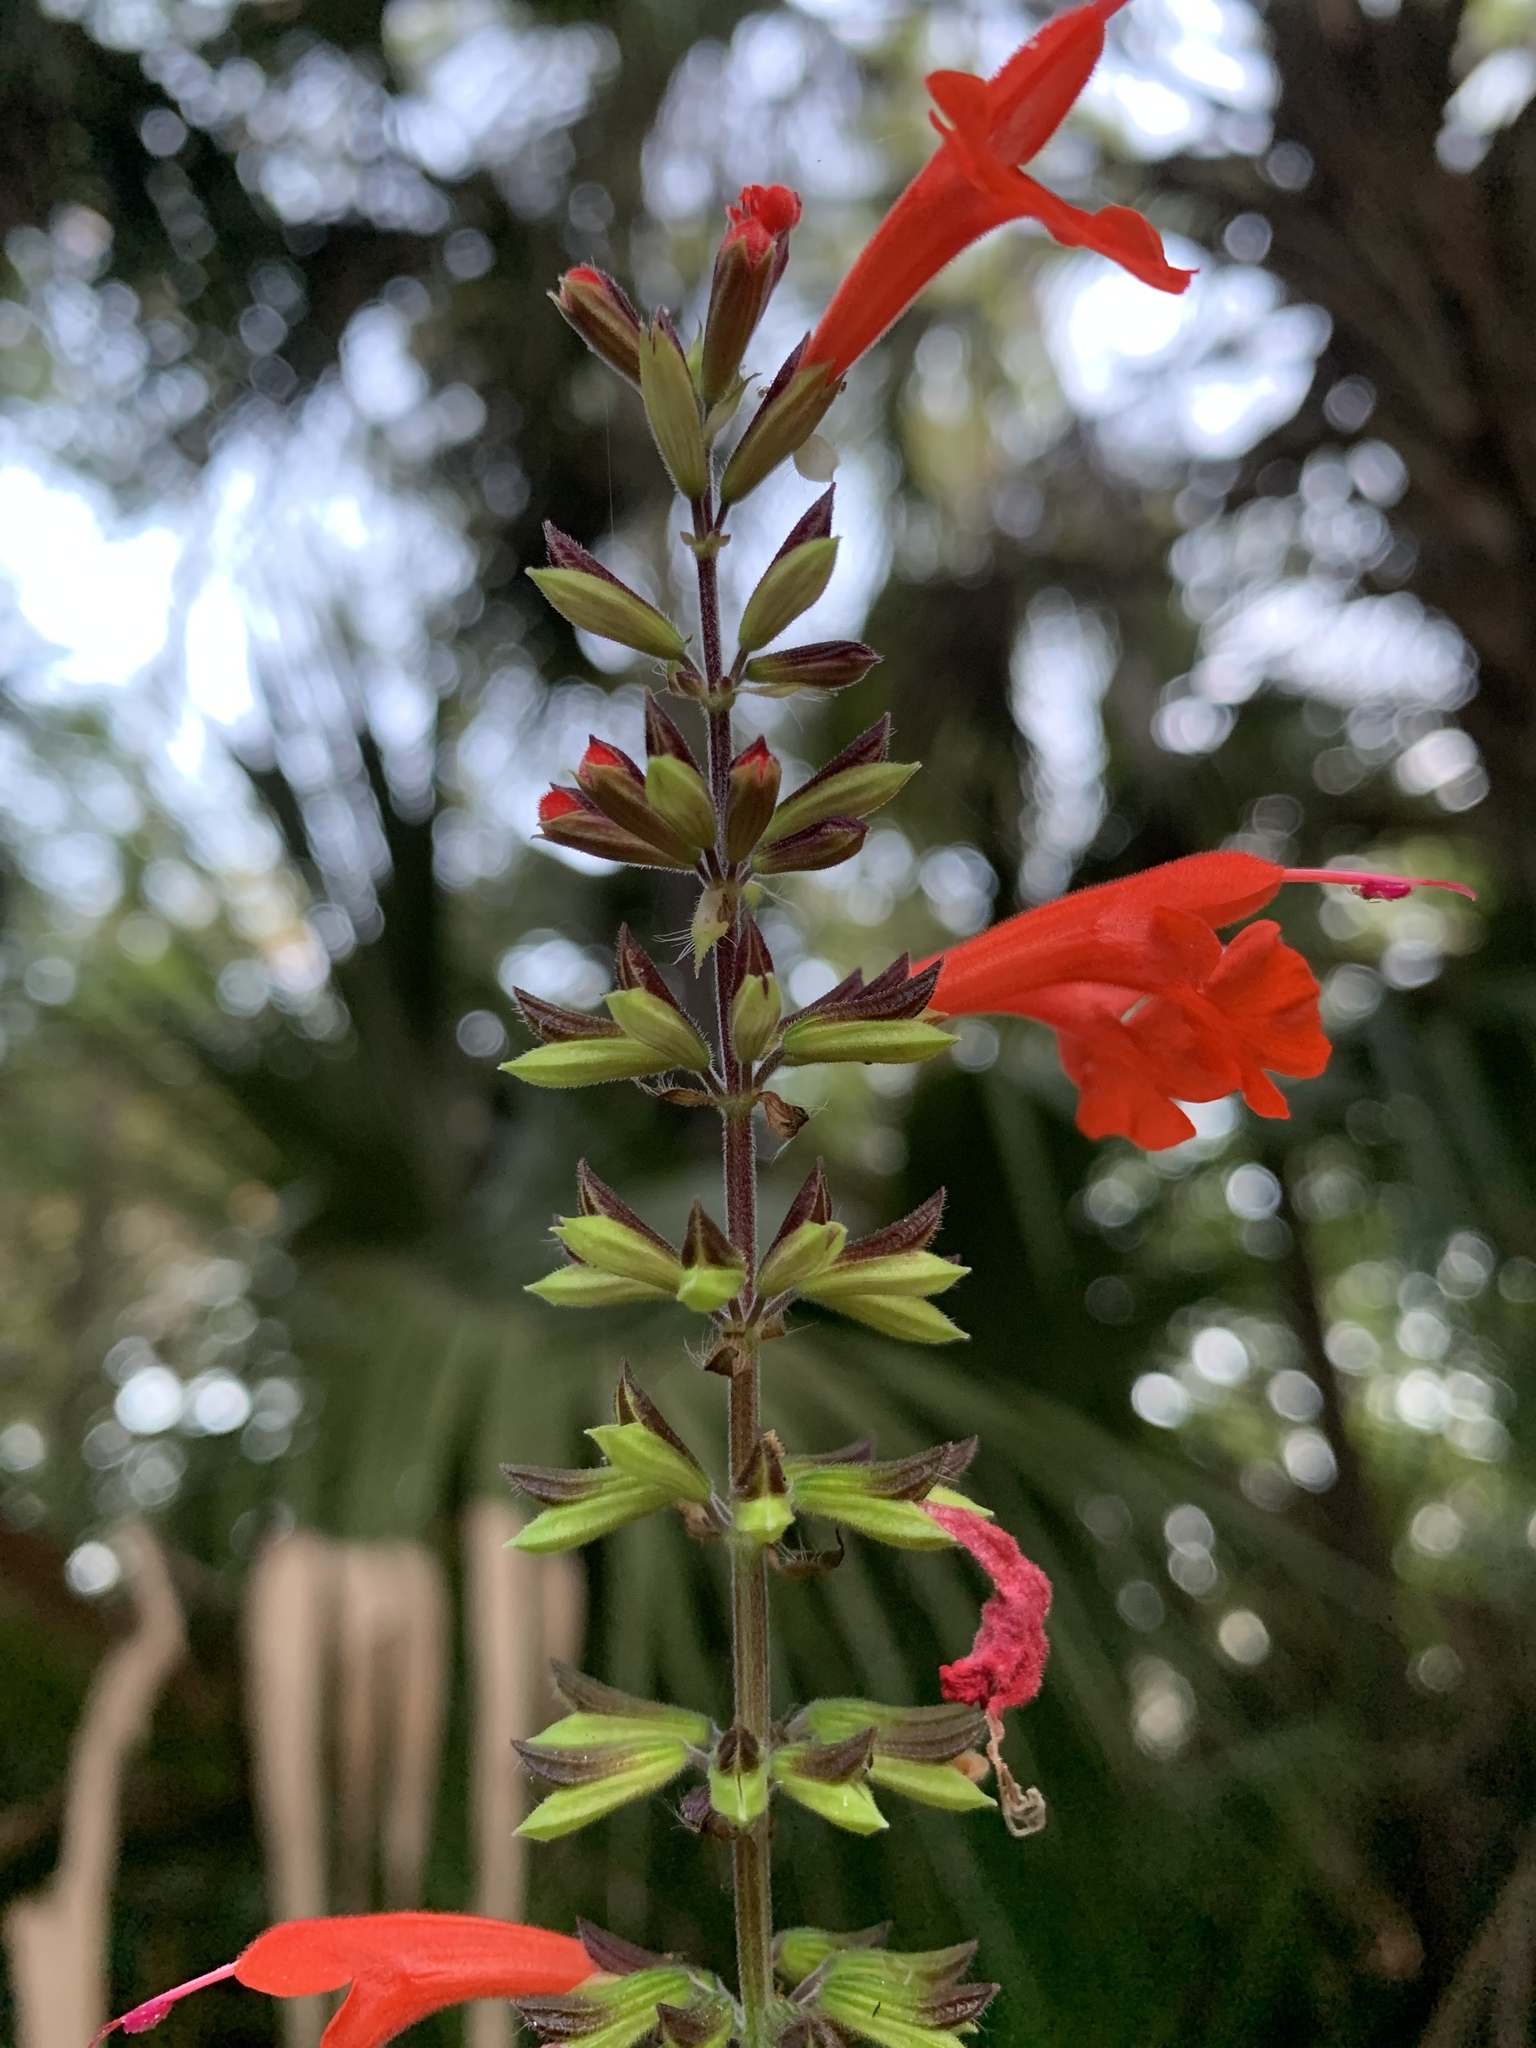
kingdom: Plantae
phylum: Tracheophyta
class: Magnoliopsida
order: Lamiales
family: Lamiaceae
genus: Salvia
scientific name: Salvia coccinea
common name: Blood sage
